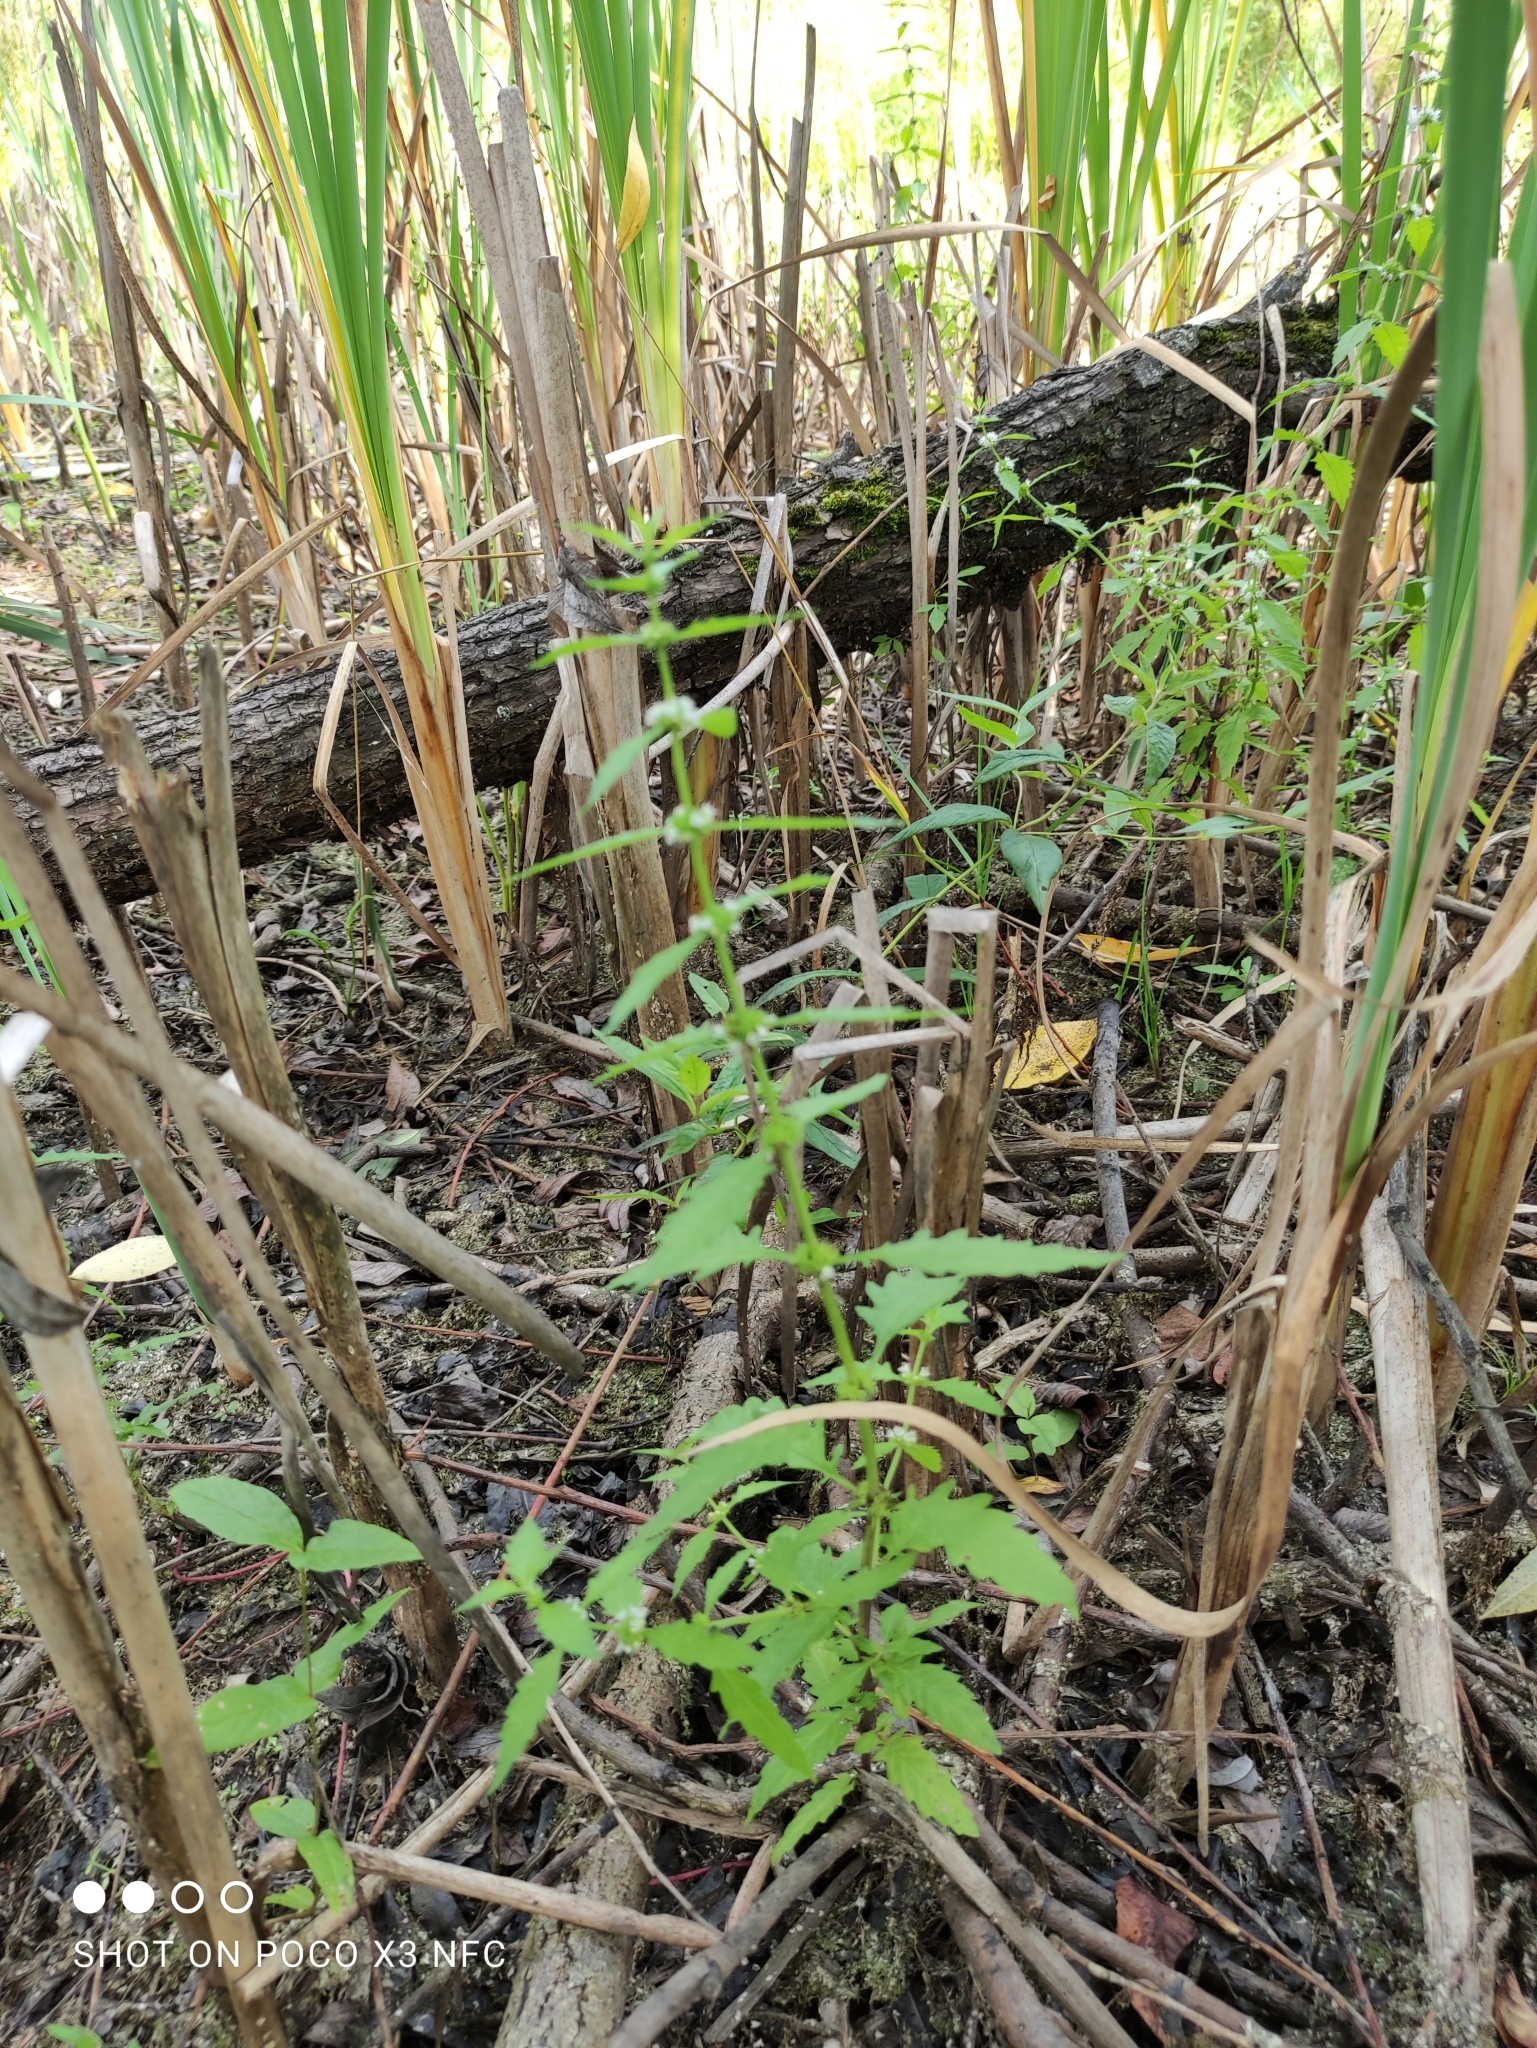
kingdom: Plantae
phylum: Tracheophyta
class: Magnoliopsida
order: Lamiales
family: Lamiaceae
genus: Lycopus
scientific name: Lycopus europaeus
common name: European bugleweed
